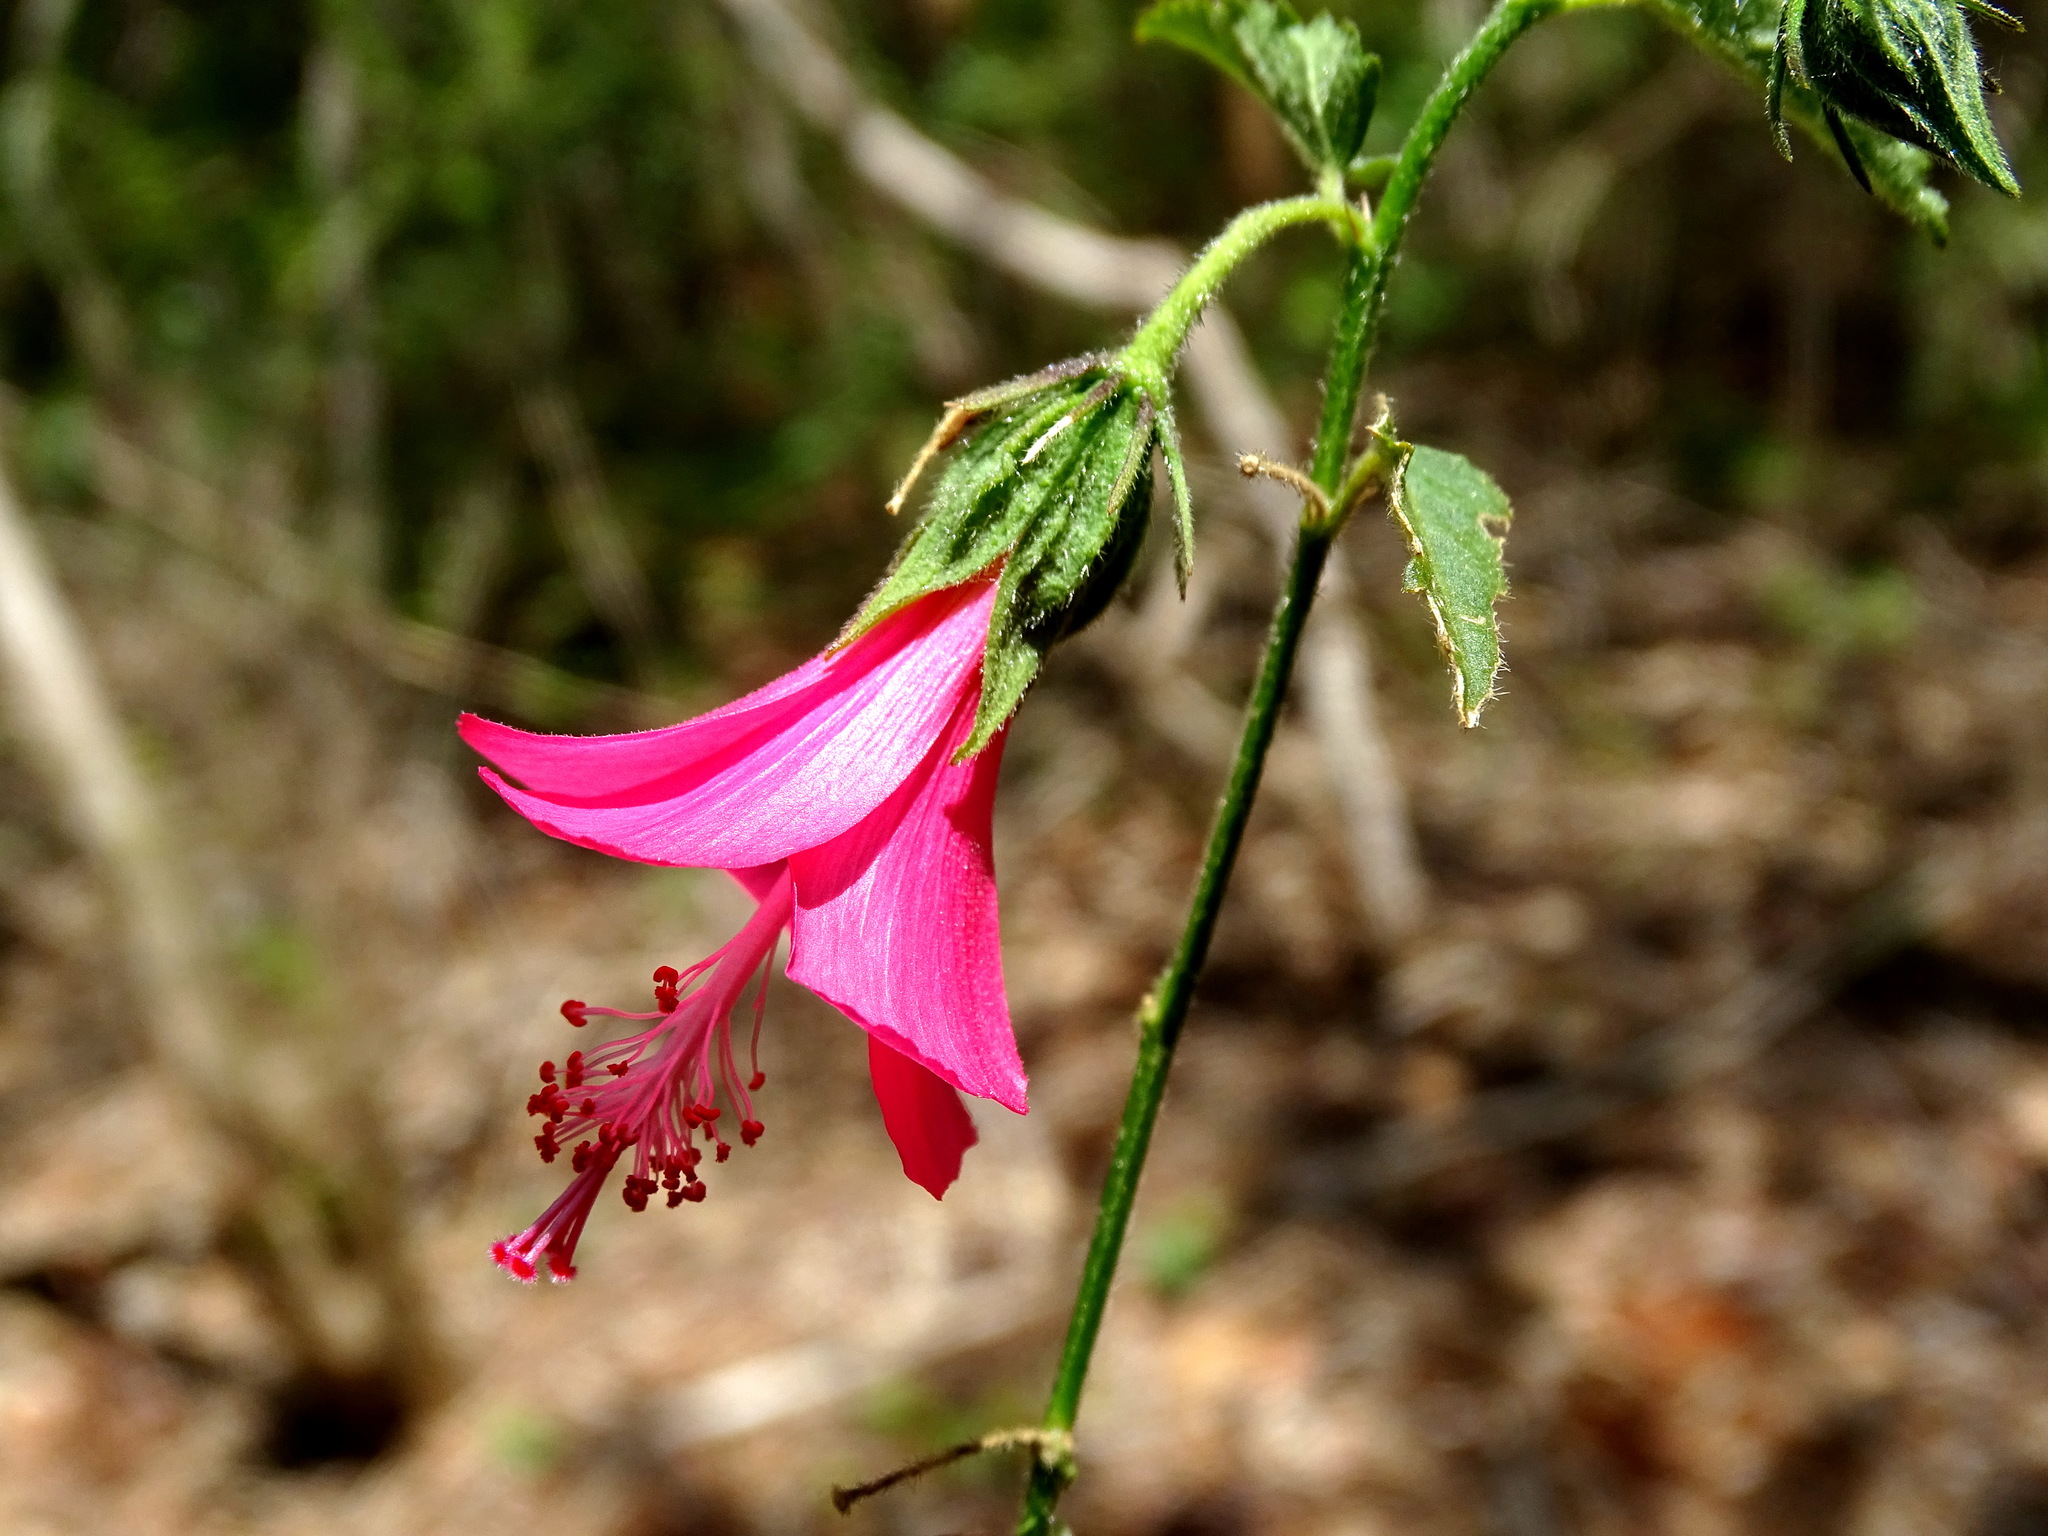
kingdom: Plantae
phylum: Tracheophyta
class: Magnoliopsida
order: Malvales
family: Malvaceae
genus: Hibiscus
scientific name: Hibiscus poeppigii
